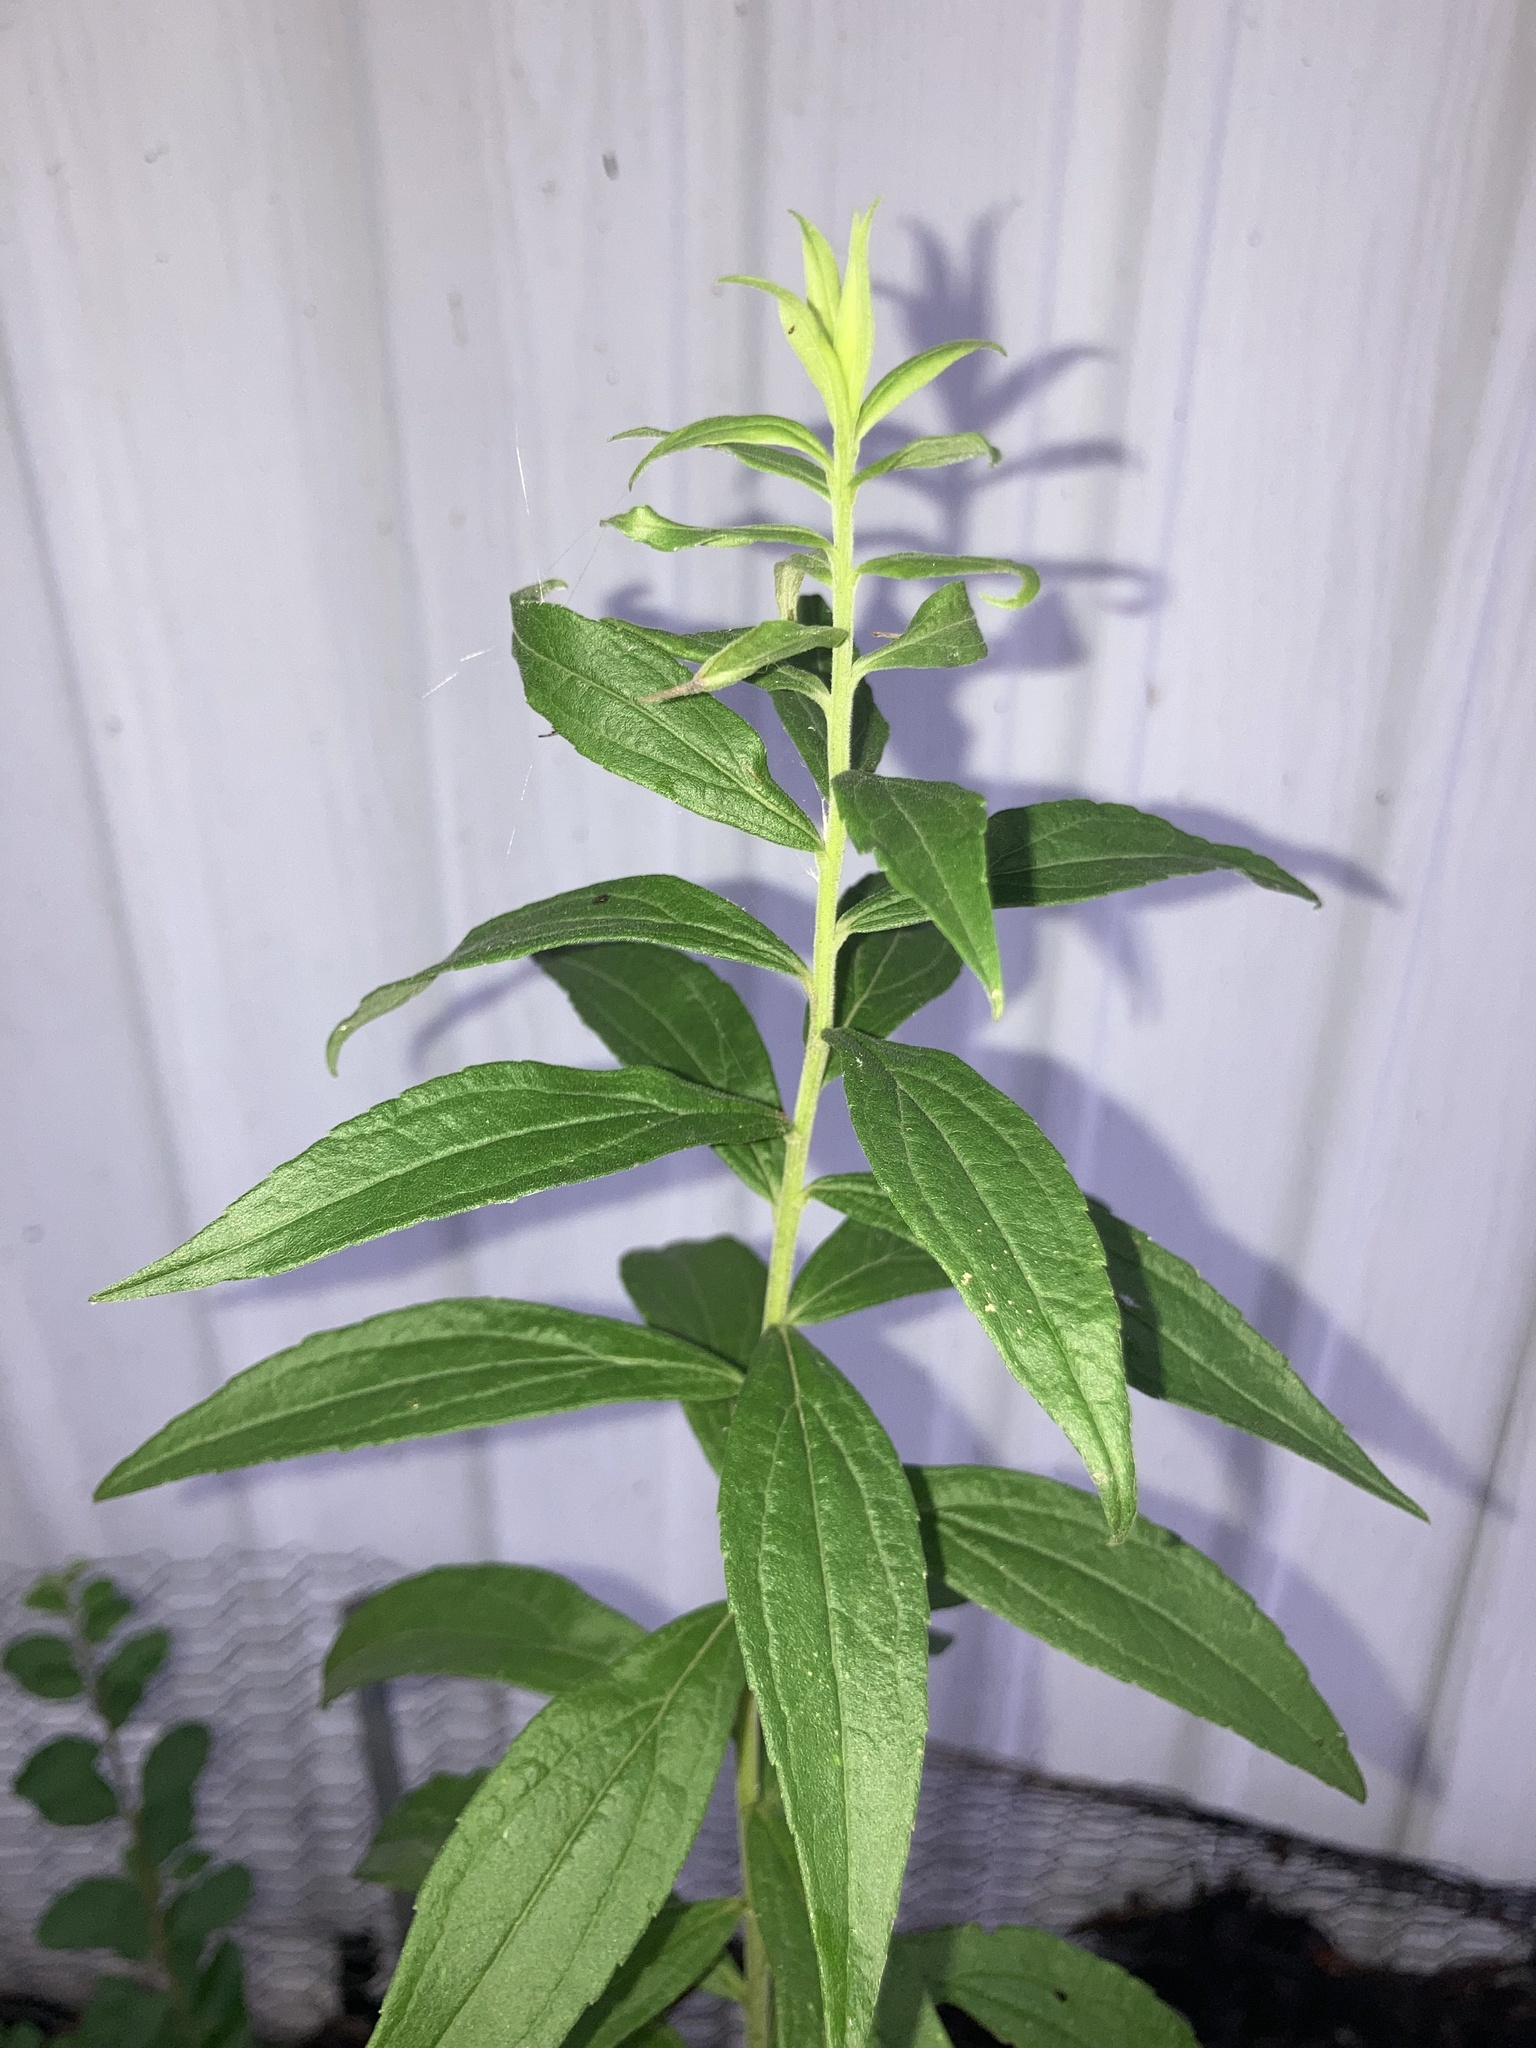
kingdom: Plantae
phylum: Tracheophyta
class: Magnoliopsida
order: Asterales
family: Asteraceae
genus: Solidago
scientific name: Solidago altissima
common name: Late goldenrod
